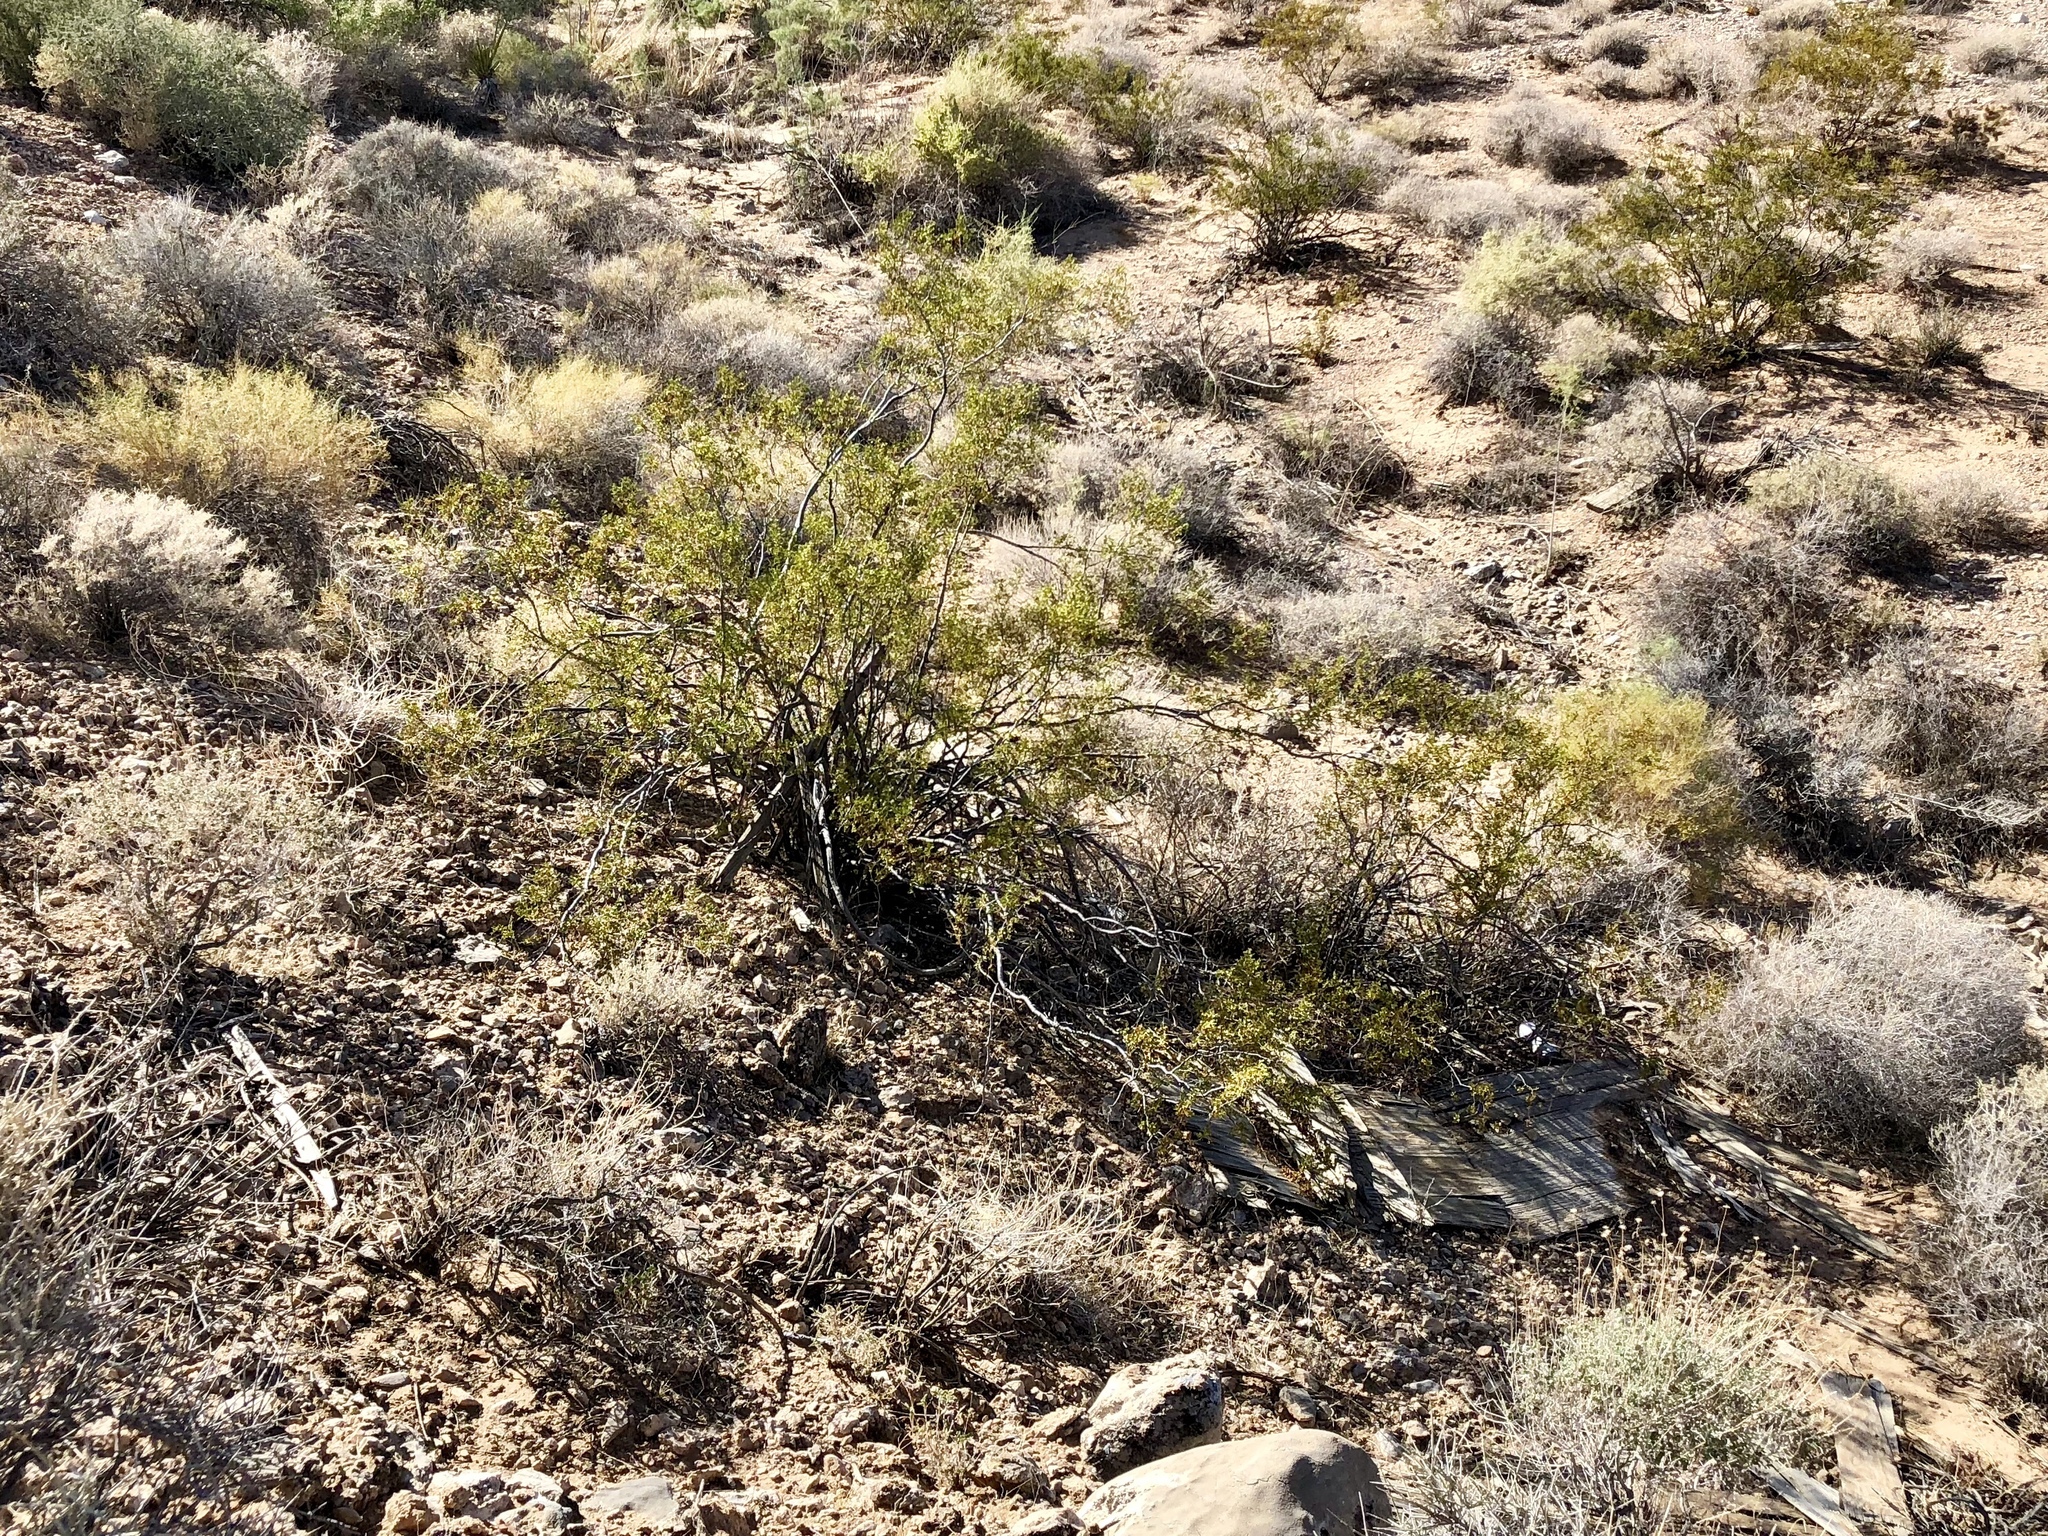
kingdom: Plantae
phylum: Tracheophyta
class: Magnoliopsida
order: Zygophyllales
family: Zygophyllaceae
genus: Larrea
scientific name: Larrea tridentata
